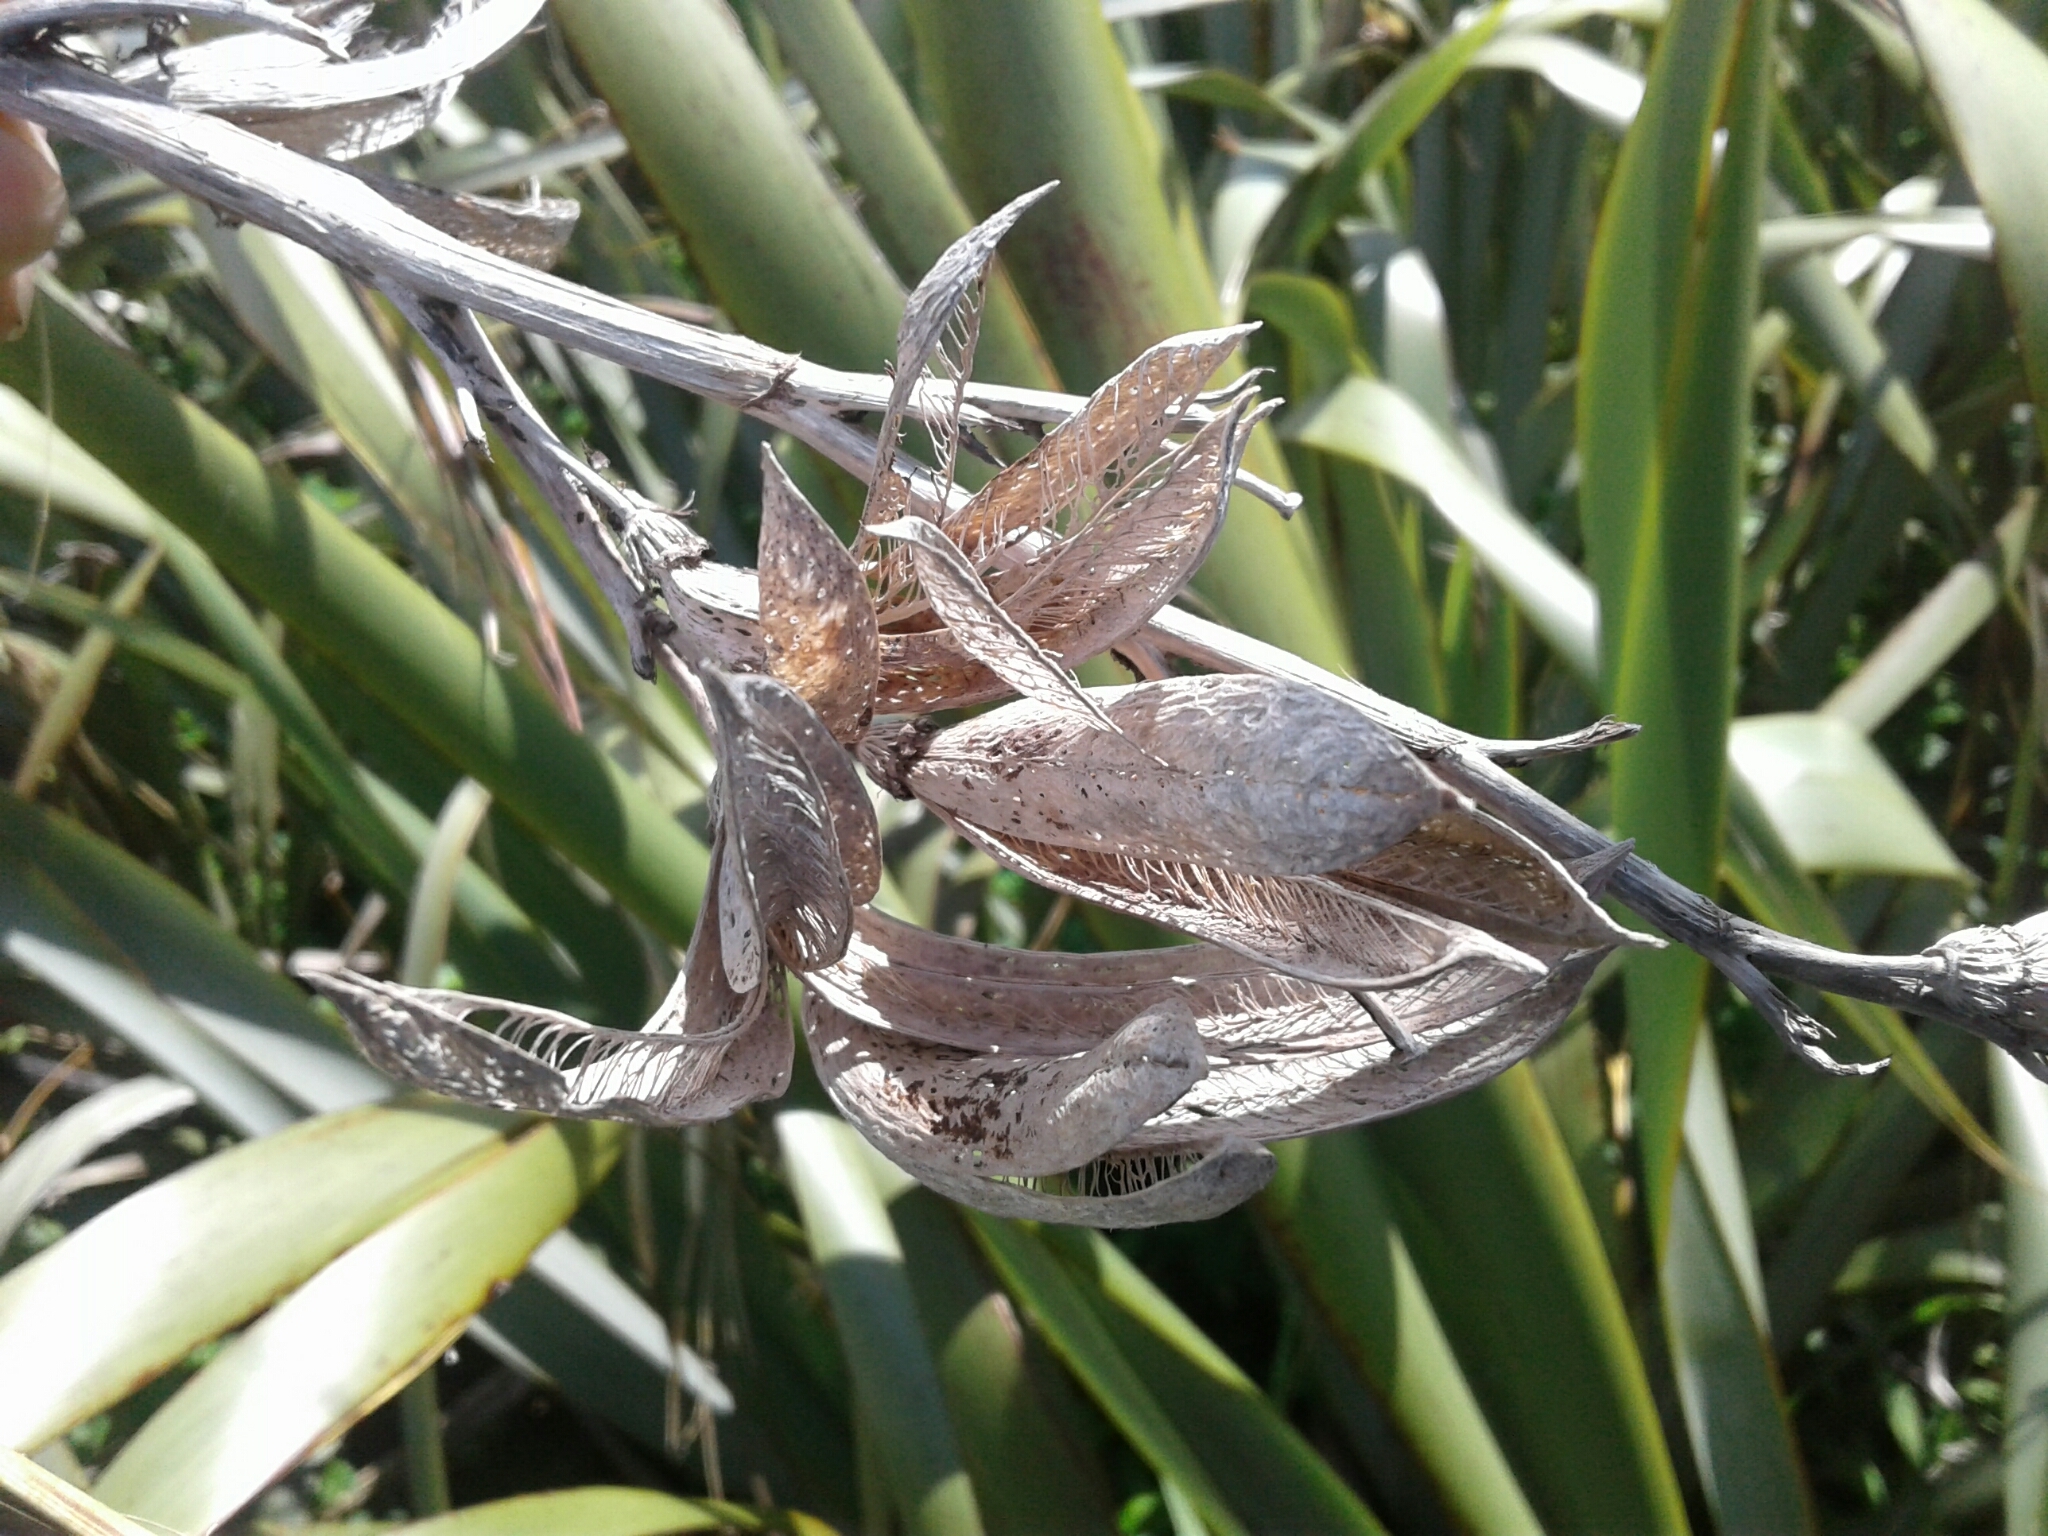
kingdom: Plantae
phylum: Tracheophyta
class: Liliopsida
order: Asparagales
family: Asphodelaceae
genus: Phormium
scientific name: Phormium
